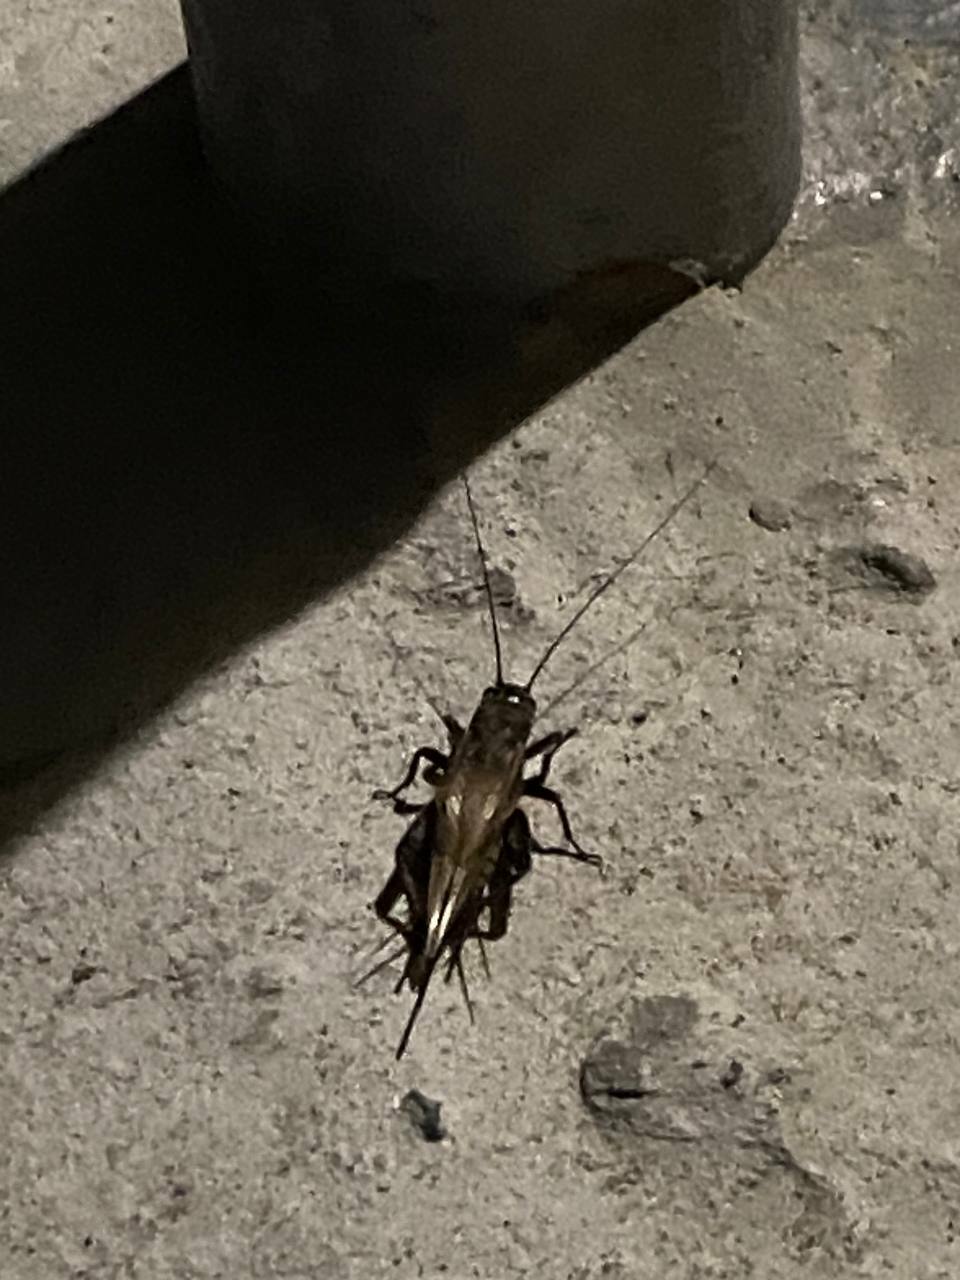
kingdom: Animalia
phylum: Arthropoda
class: Insecta
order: Orthoptera
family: Gryllidae
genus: Melanogryllus
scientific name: Melanogryllus desertus
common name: Desert cricket
